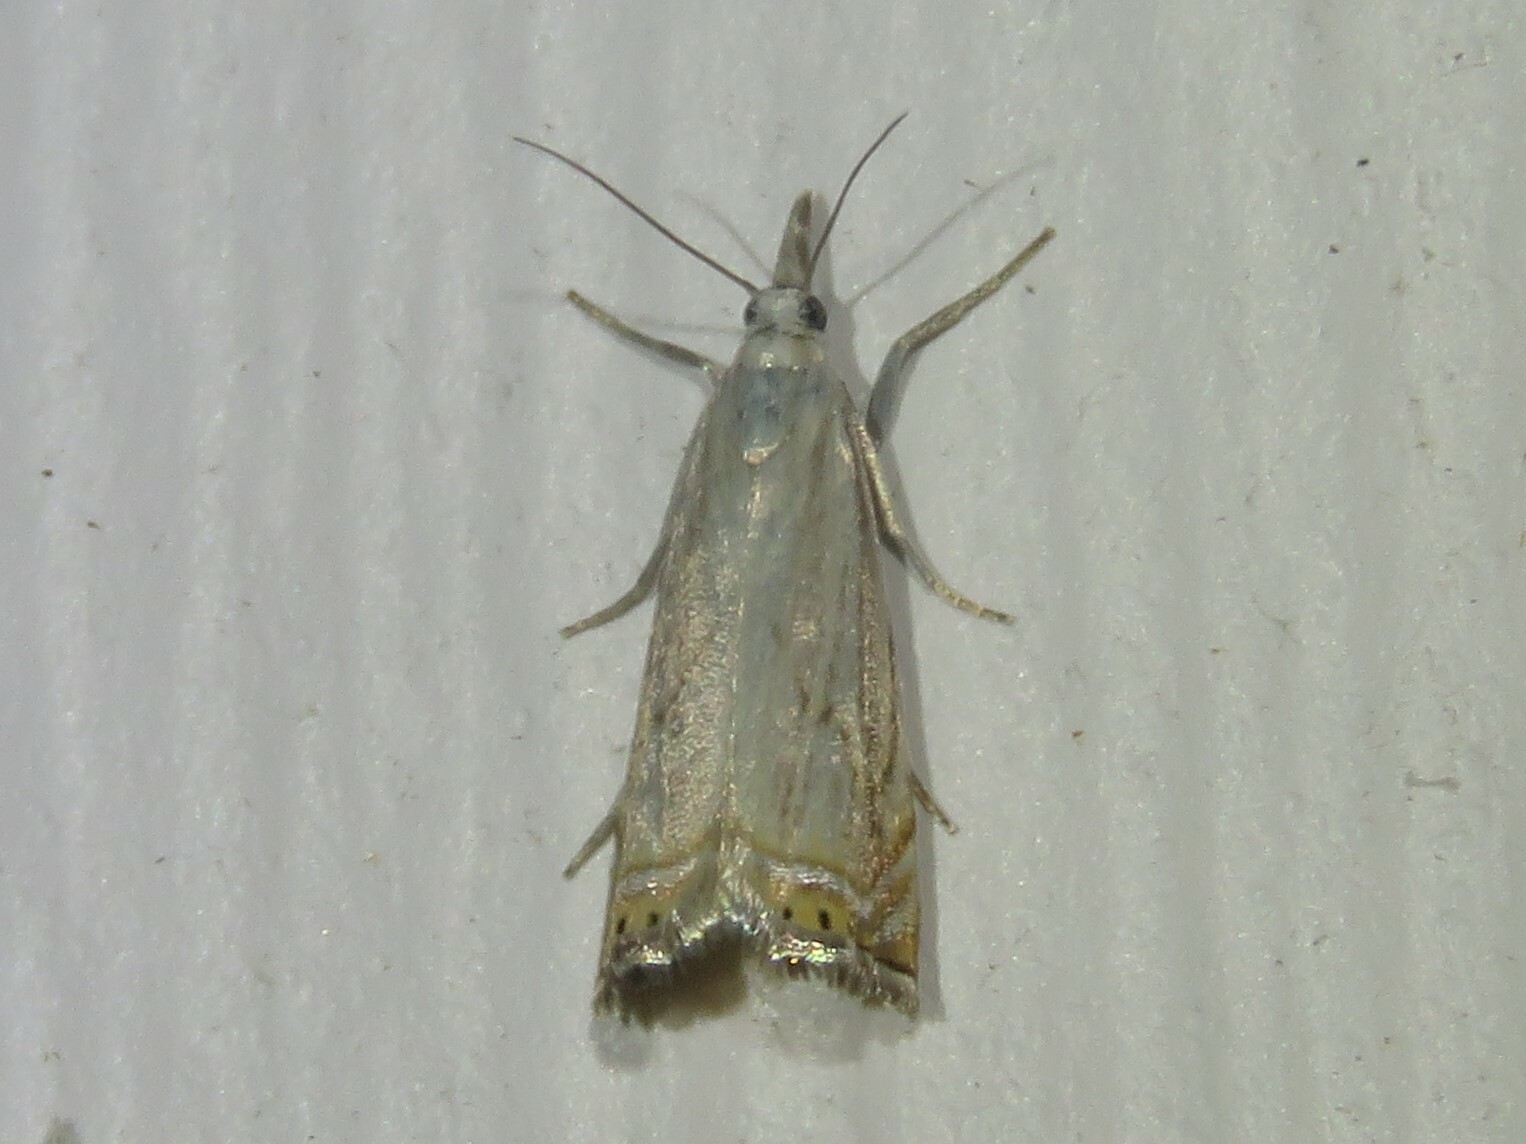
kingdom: Animalia
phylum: Arthropoda
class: Insecta
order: Lepidoptera
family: Crambidae
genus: Chrysoteuchia
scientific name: Chrysoteuchia topiarius
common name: Topiary grass-veneer
